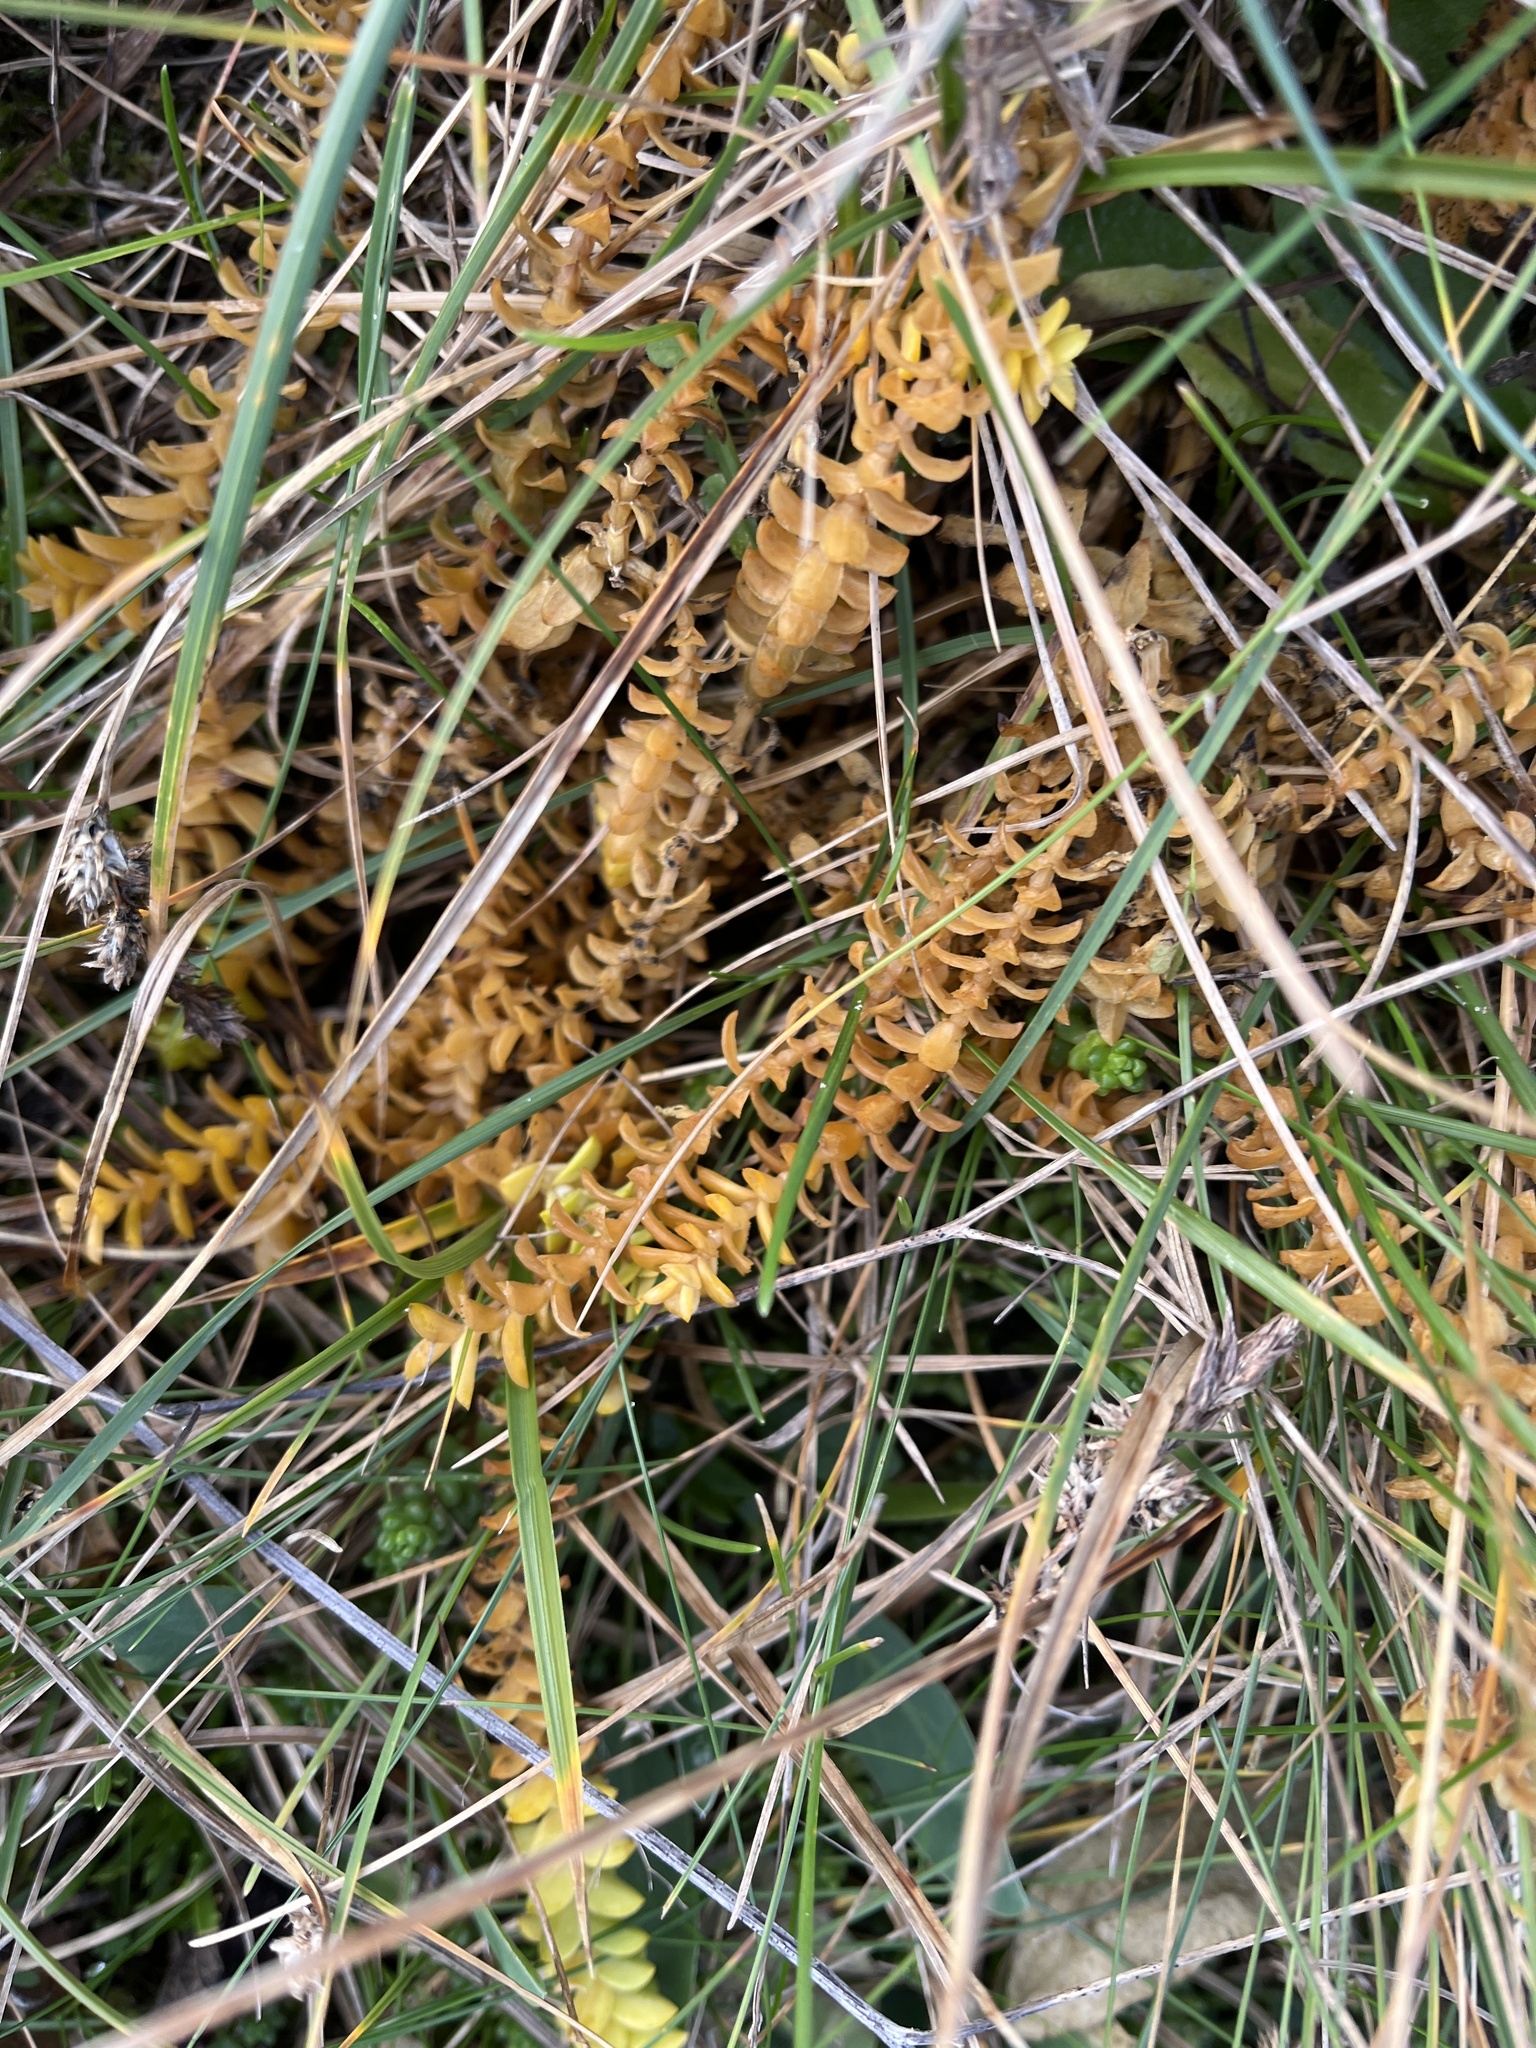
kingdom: Plantae
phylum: Tracheophyta
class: Magnoliopsida
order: Ericales
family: Primulaceae
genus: Lysimachia
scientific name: Lysimachia maritima
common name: Sea milkwort
